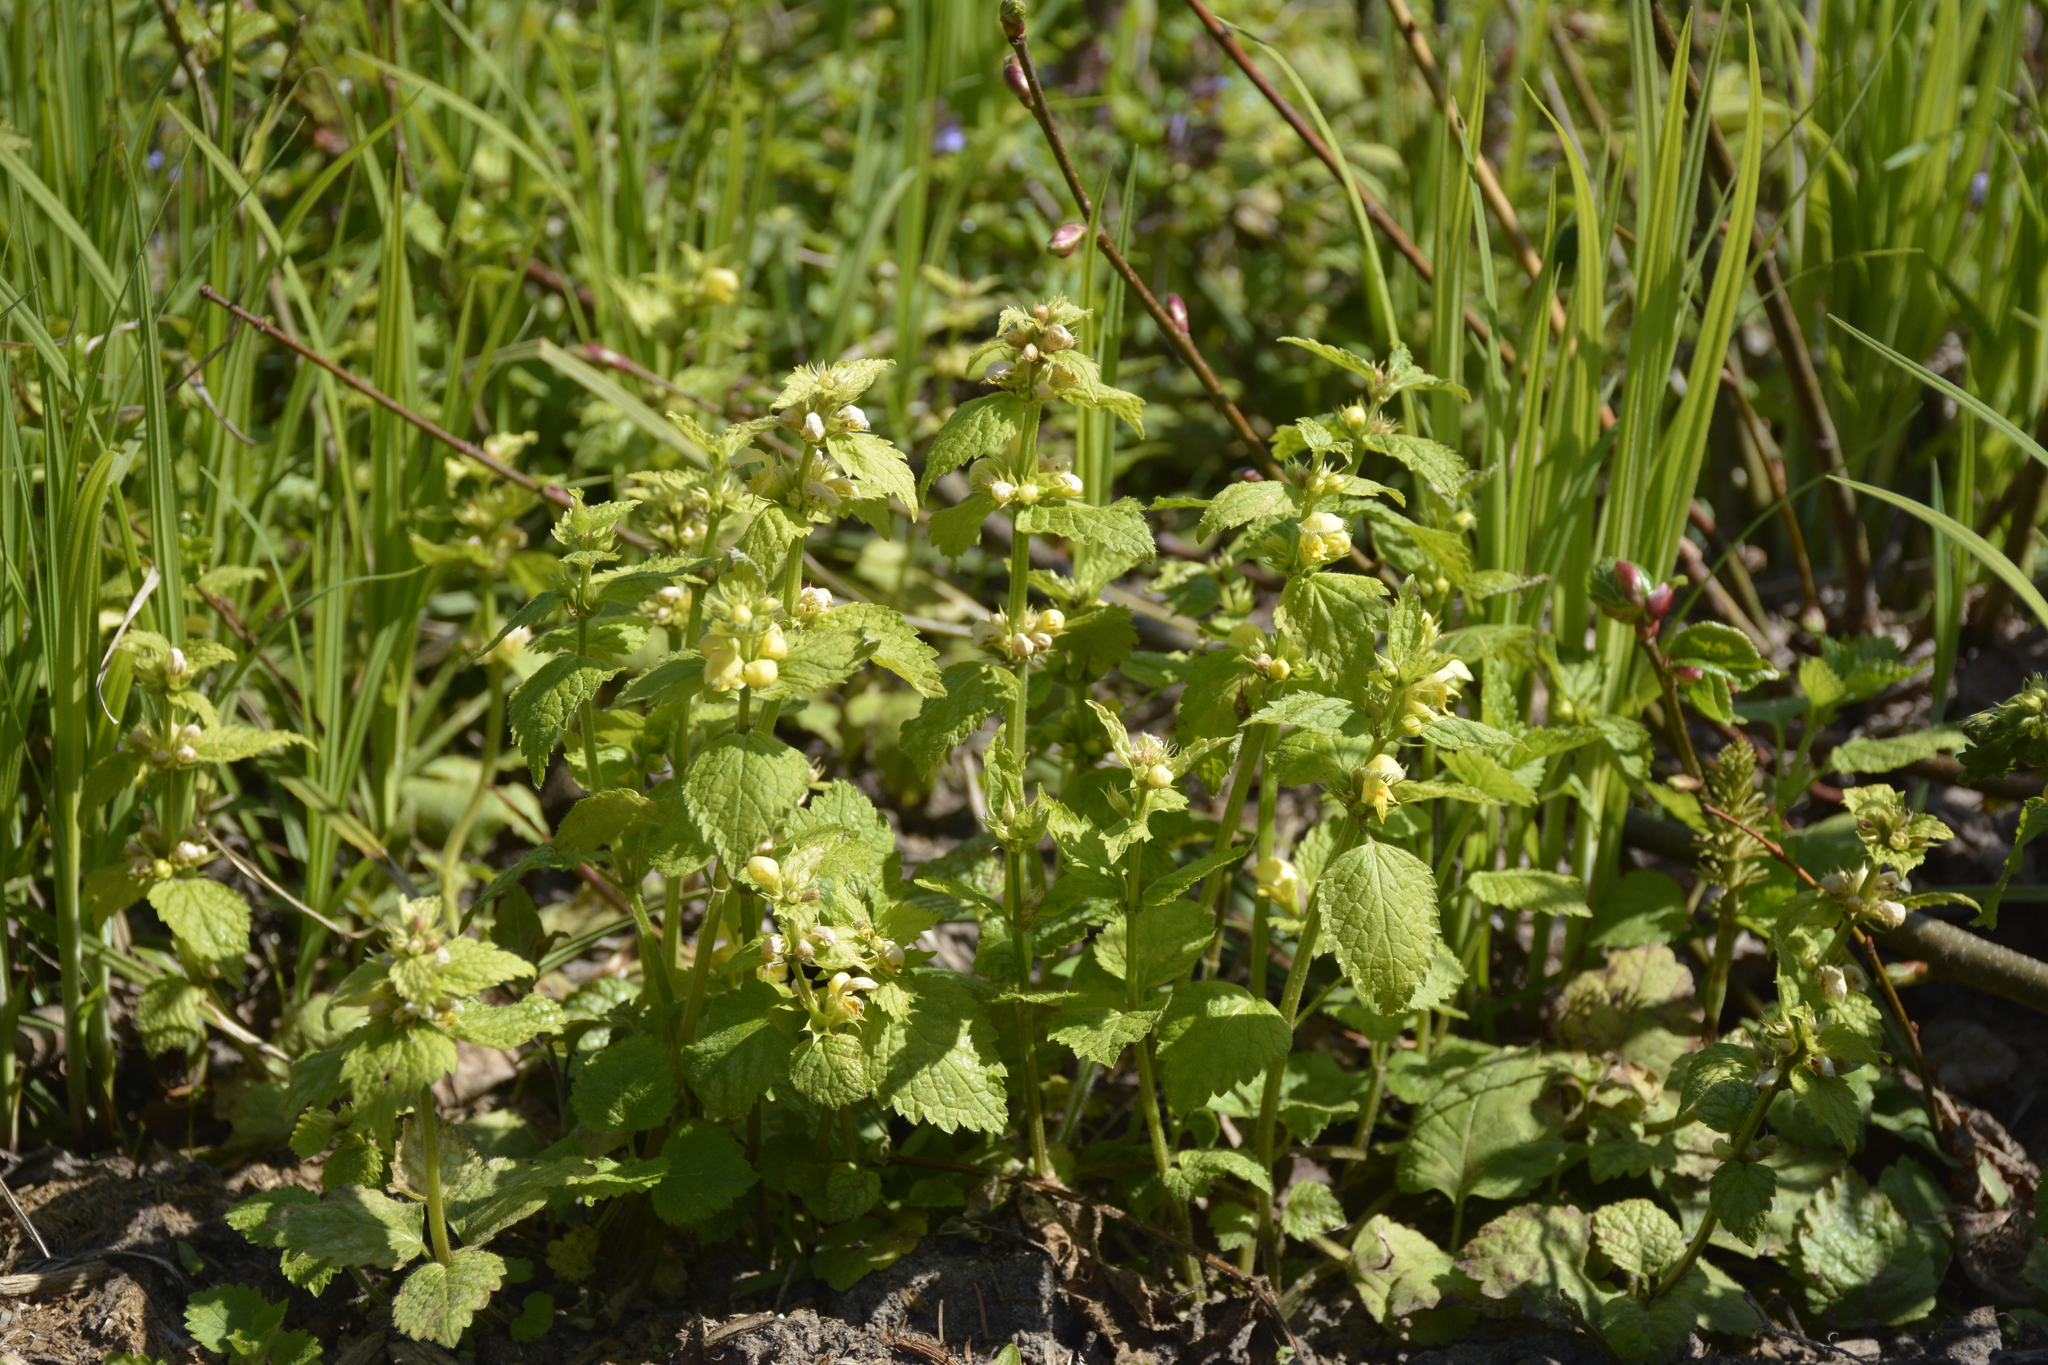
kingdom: Plantae
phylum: Tracheophyta
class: Magnoliopsida
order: Lamiales
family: Lamiaceae
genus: Lamium
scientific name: Lamium galeobdolon
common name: Yellow archangel
